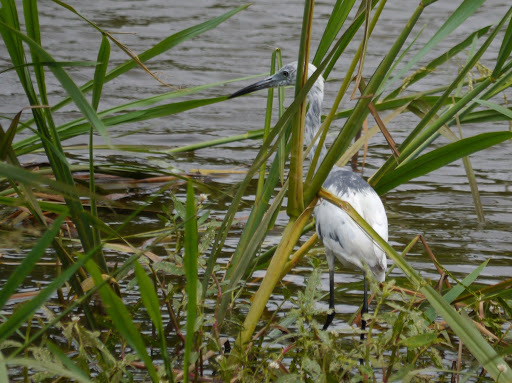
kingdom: Animalia
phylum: Chordata
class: Aves
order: Pelecaniformes
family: Ardeidae
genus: Egretta
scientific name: Egretta caerulea
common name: Little blue heron
